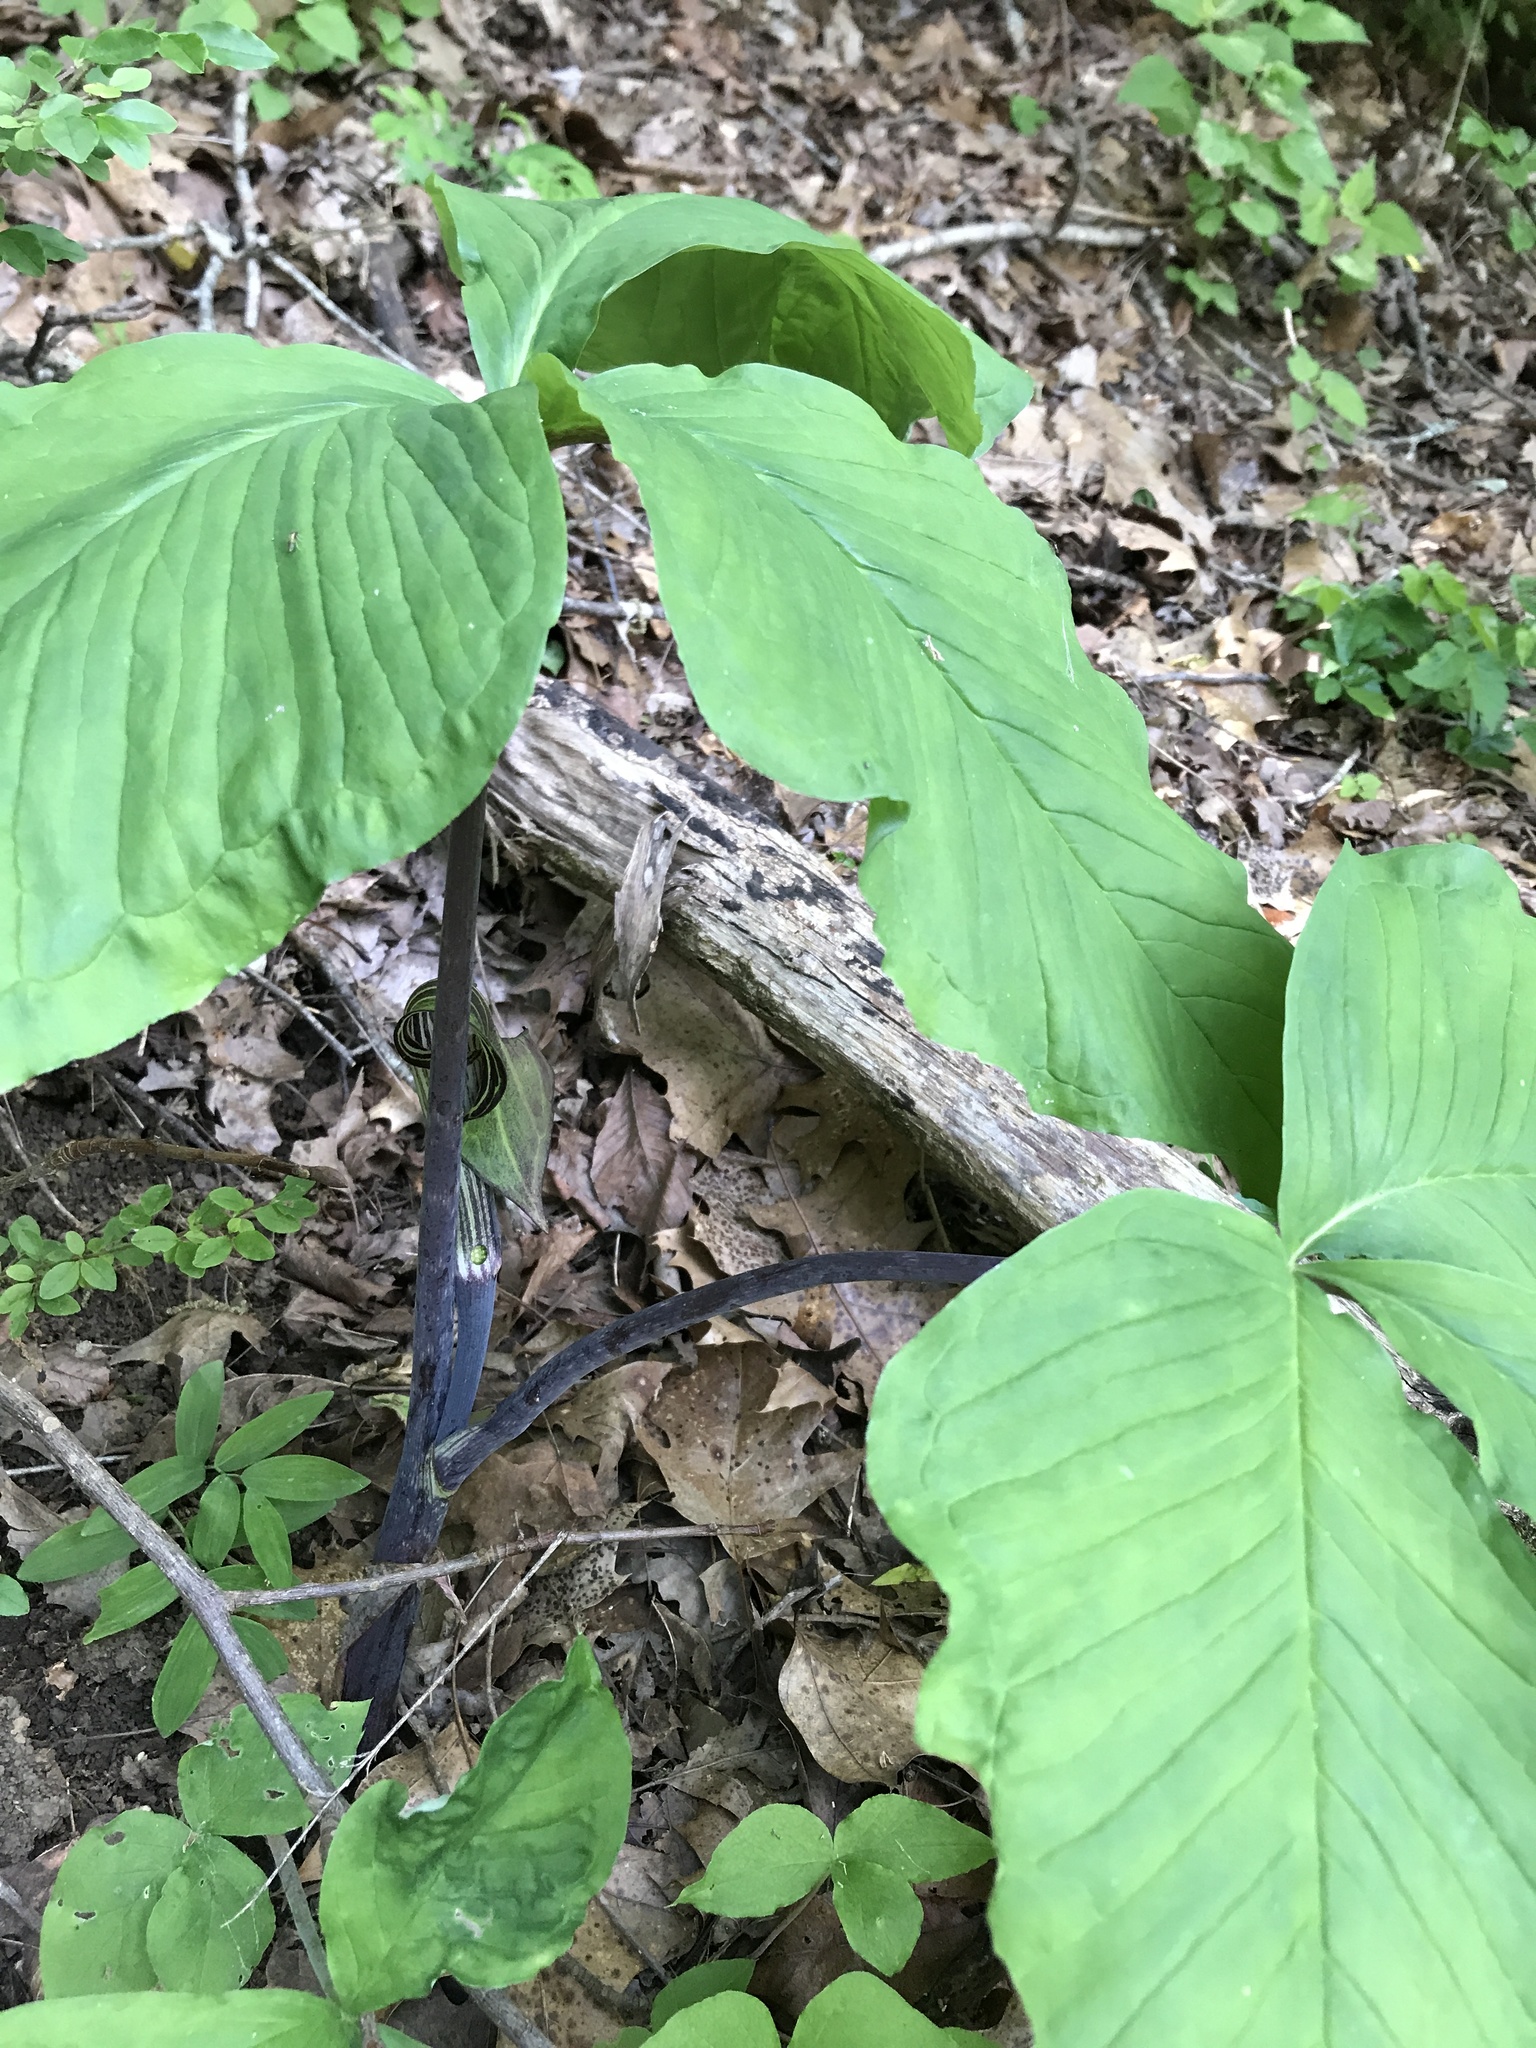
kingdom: Plantae
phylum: Tracheophyta
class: Liliopsida
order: Alismatales
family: Araceae
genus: Arisaema
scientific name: Arisaema triphyllum
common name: Jack-in-the-pulpit
